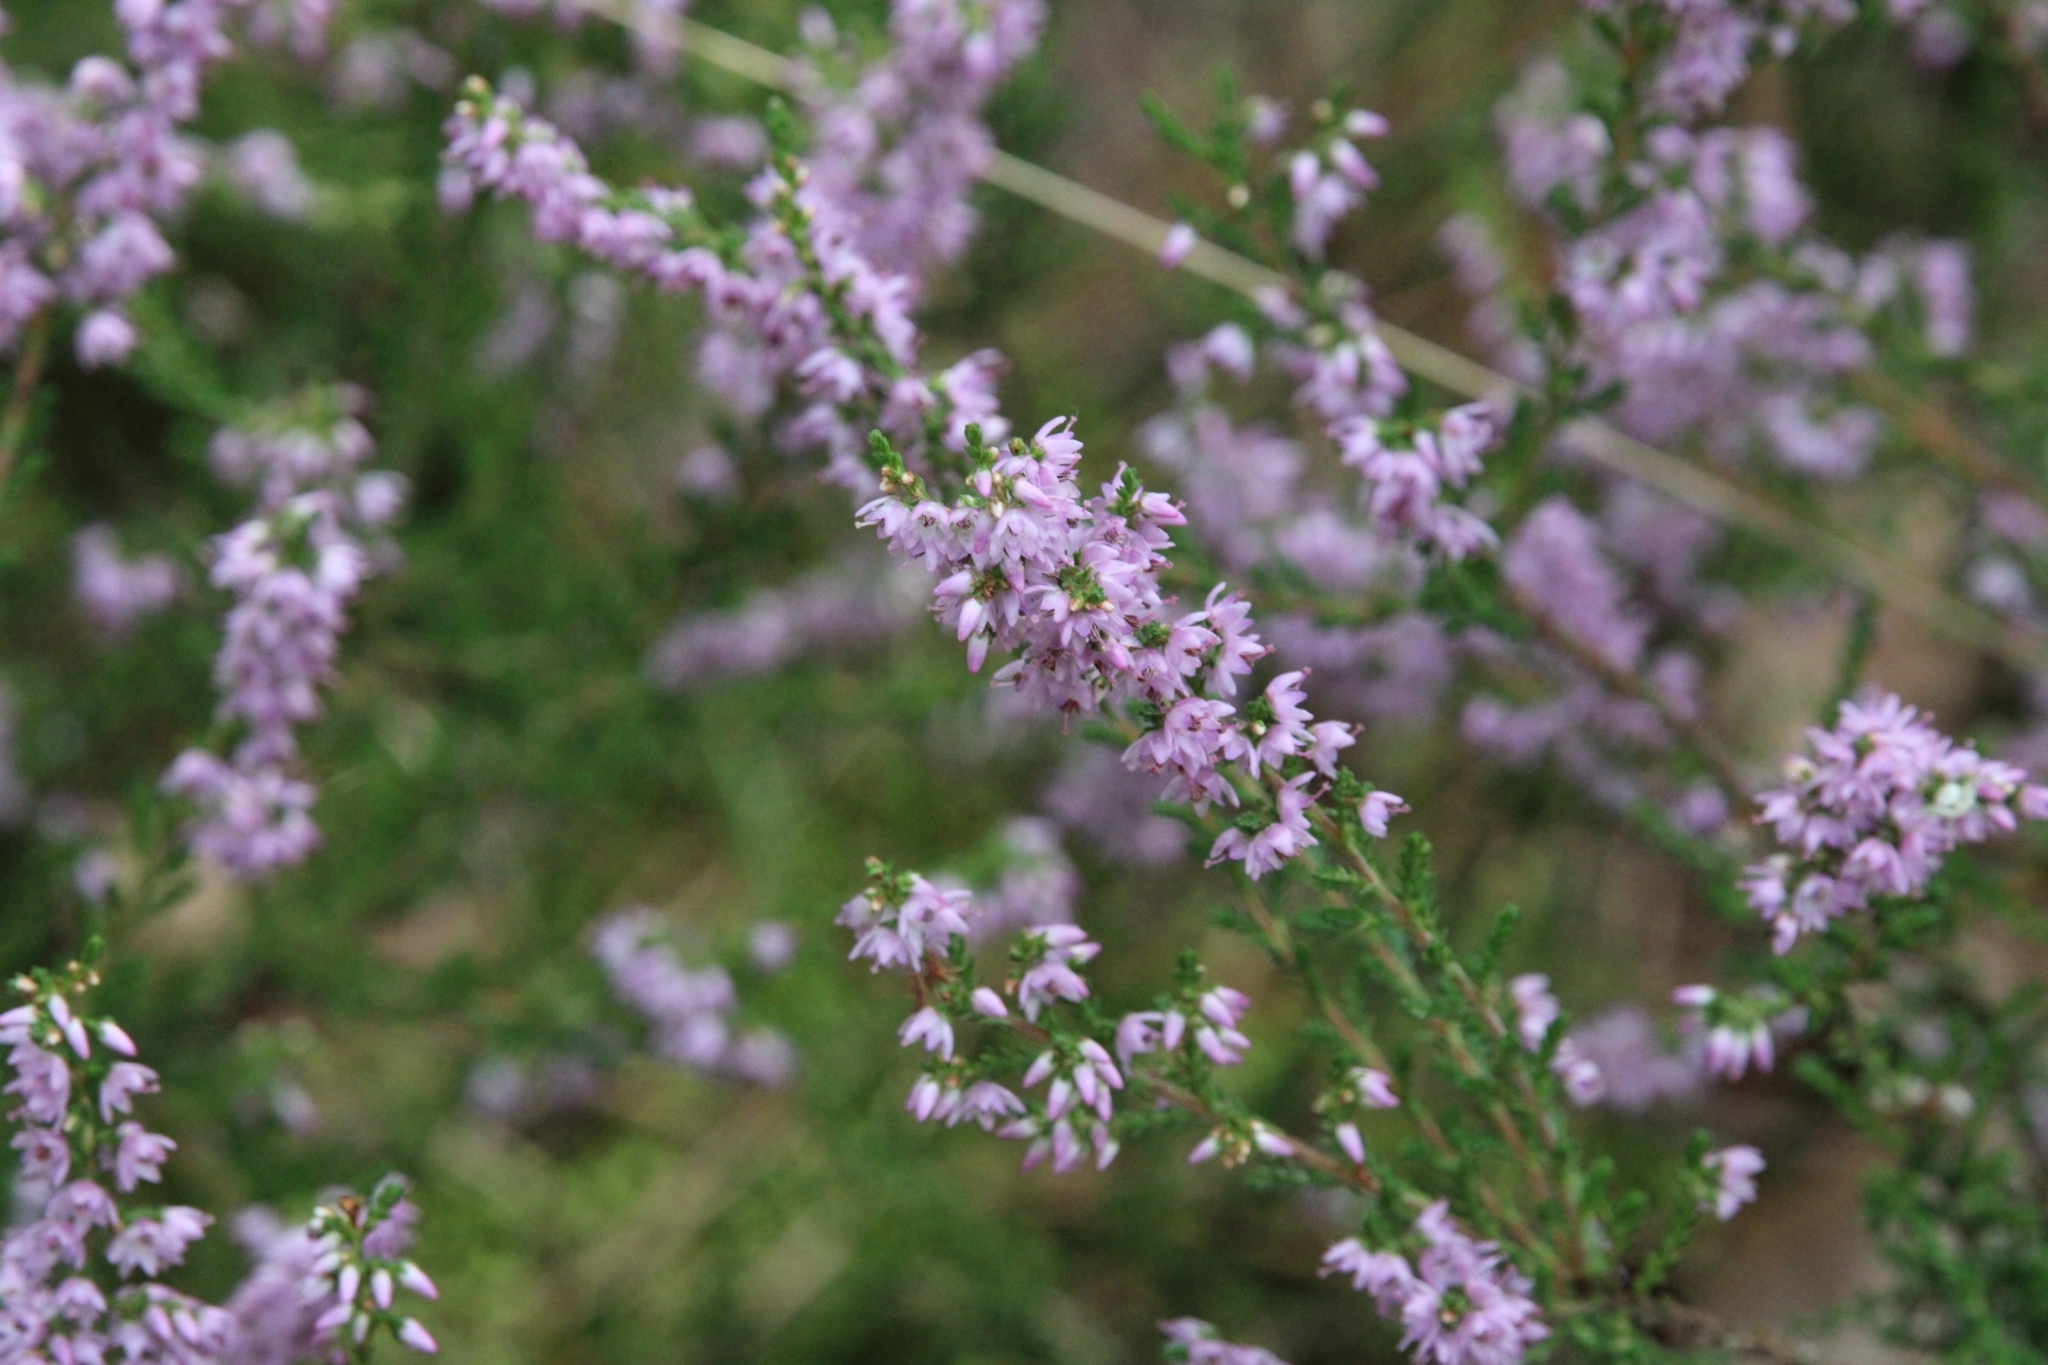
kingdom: Plantae
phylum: Tracheophyta
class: Magnoliopsida
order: Ericales
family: Ericaceae
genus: Calluna
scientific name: Calluna vulgaris
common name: Heather
